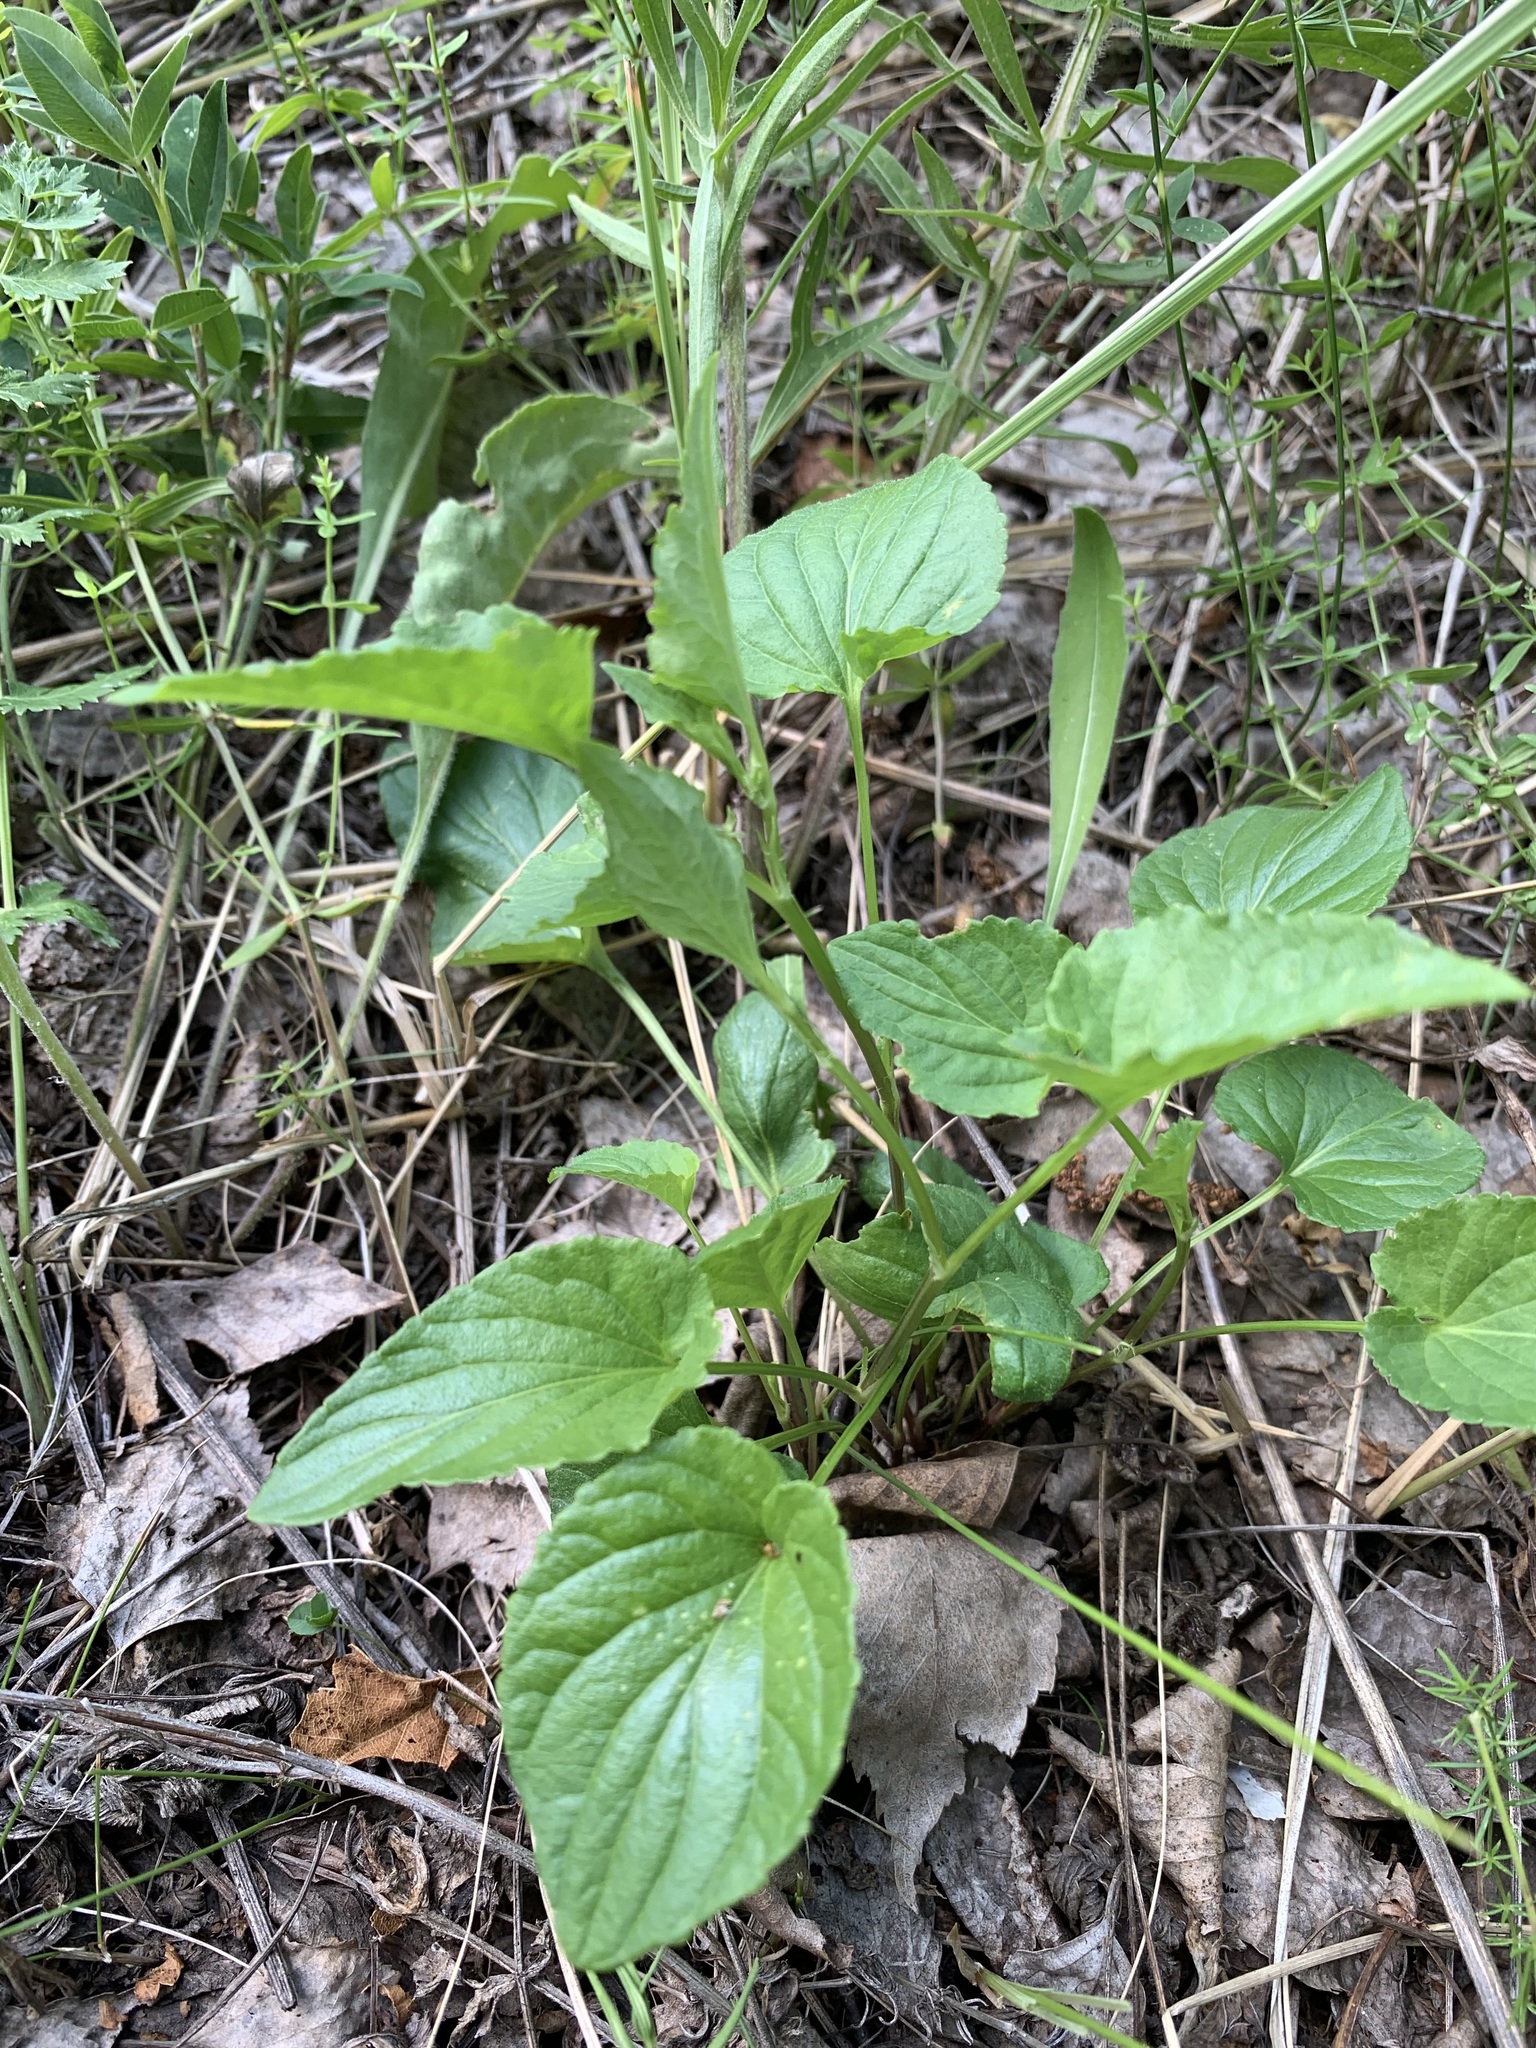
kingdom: Plantae
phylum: Tracheophyta
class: Magnoliopsida
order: Malpighiales
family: Violaceae
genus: Viola
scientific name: Viola
